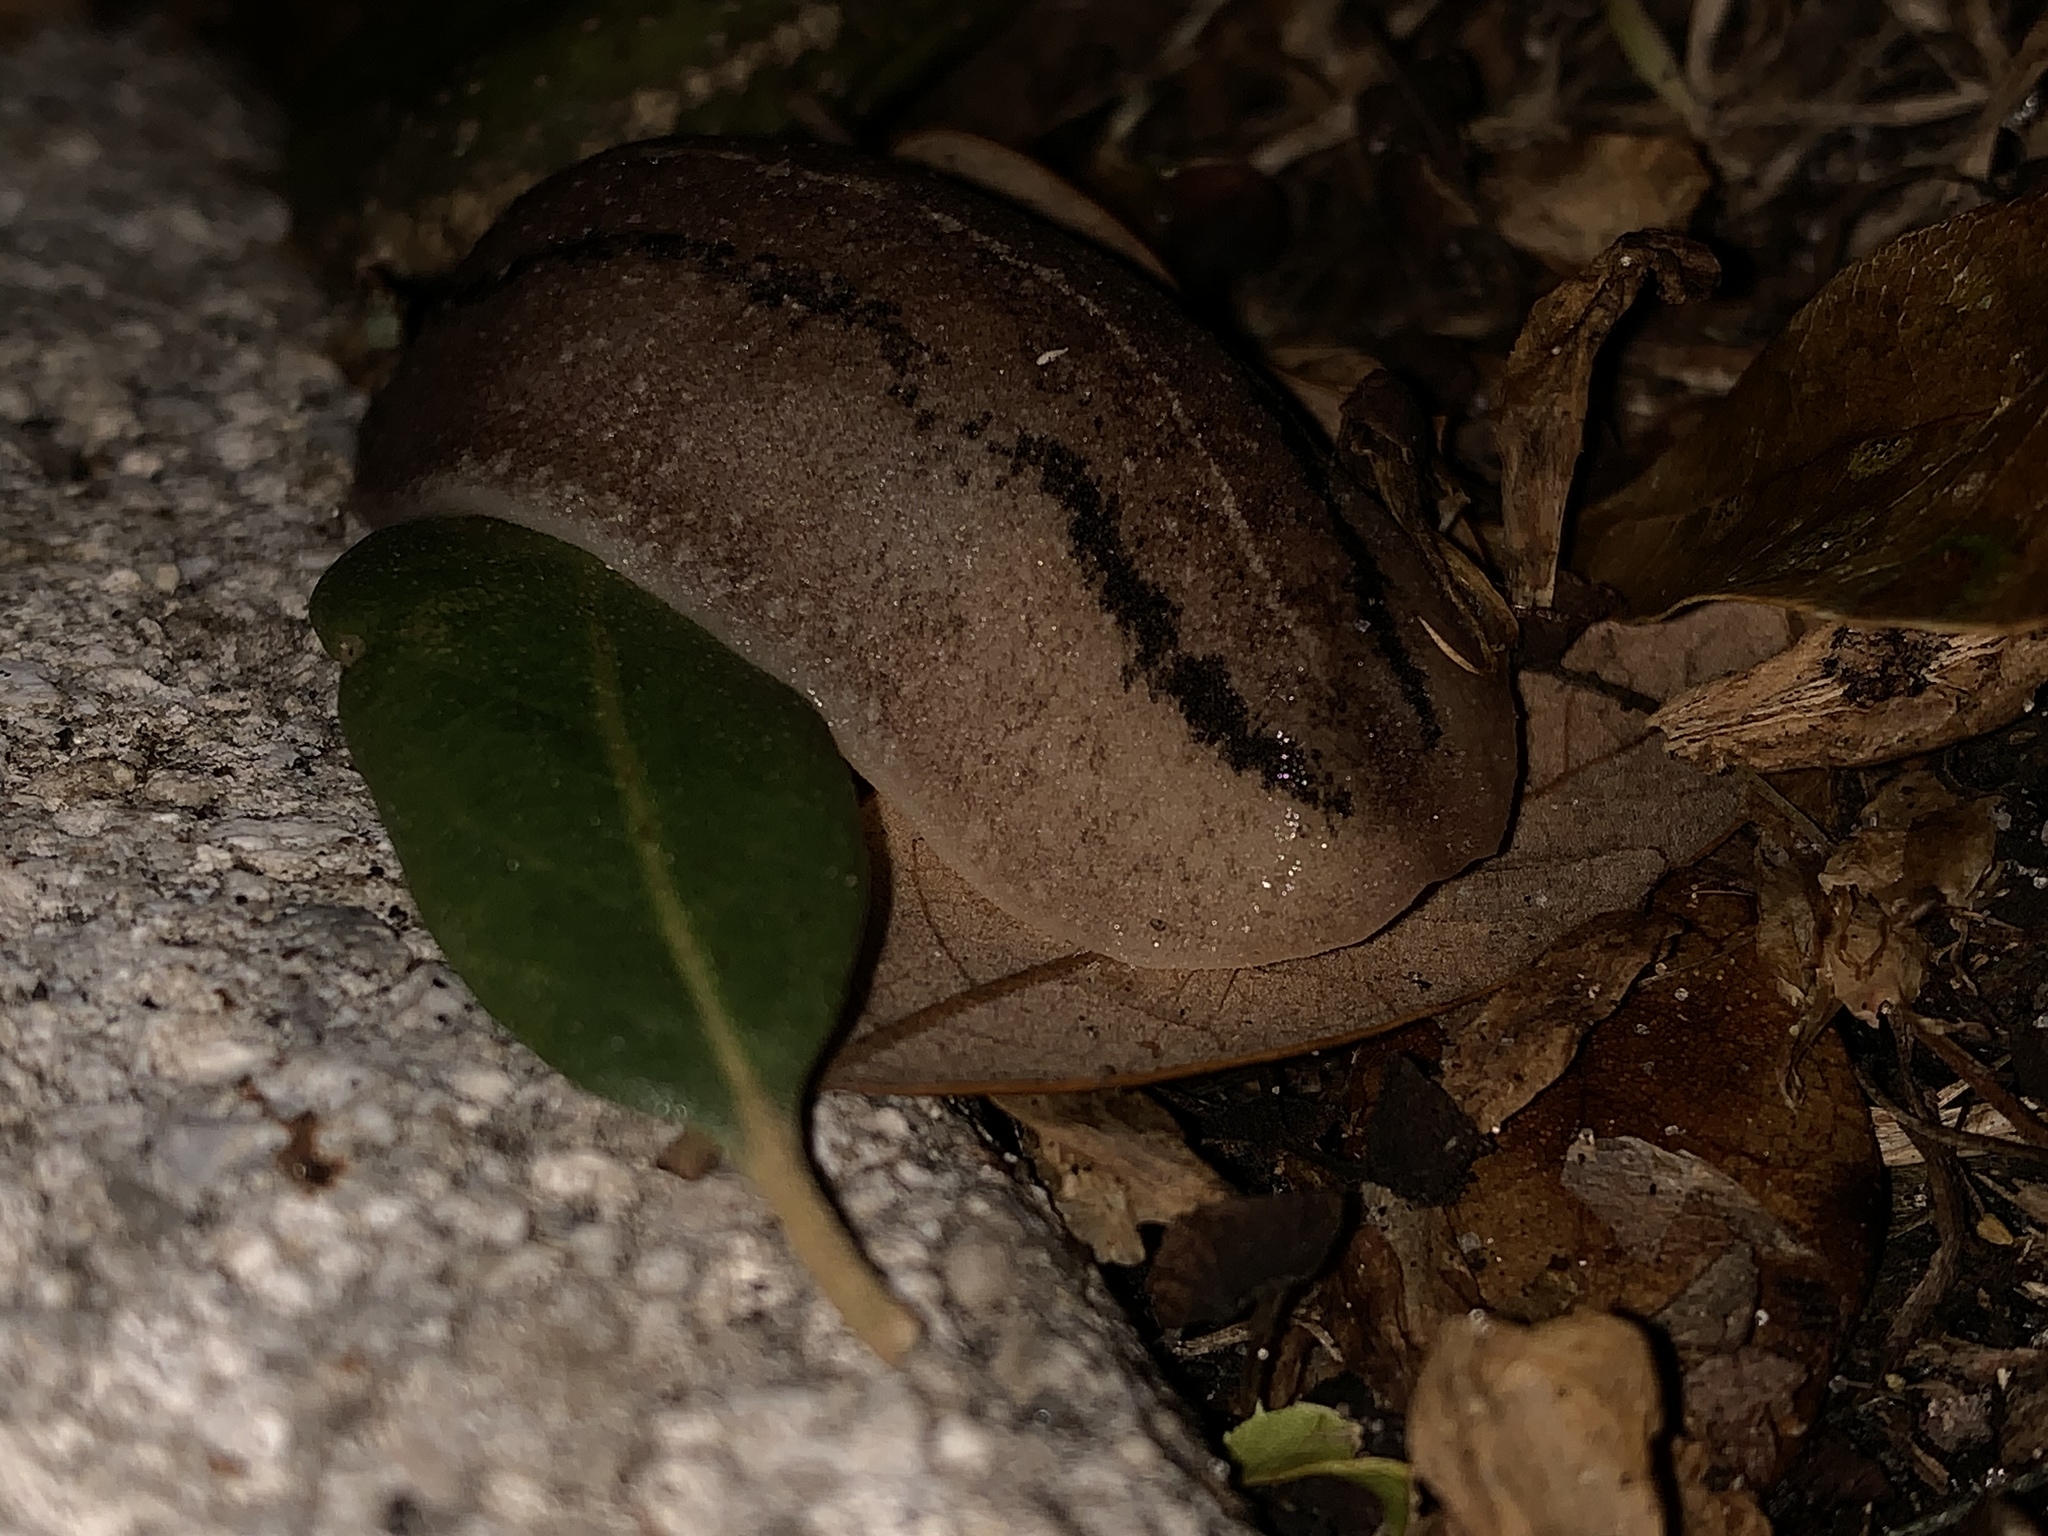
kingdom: Animalia
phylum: Mollusca
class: Gastropoda
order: Systellommatophora
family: Veronicellidae
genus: Leidyula
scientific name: Leidyula floridana
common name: Florida leatherleaf
